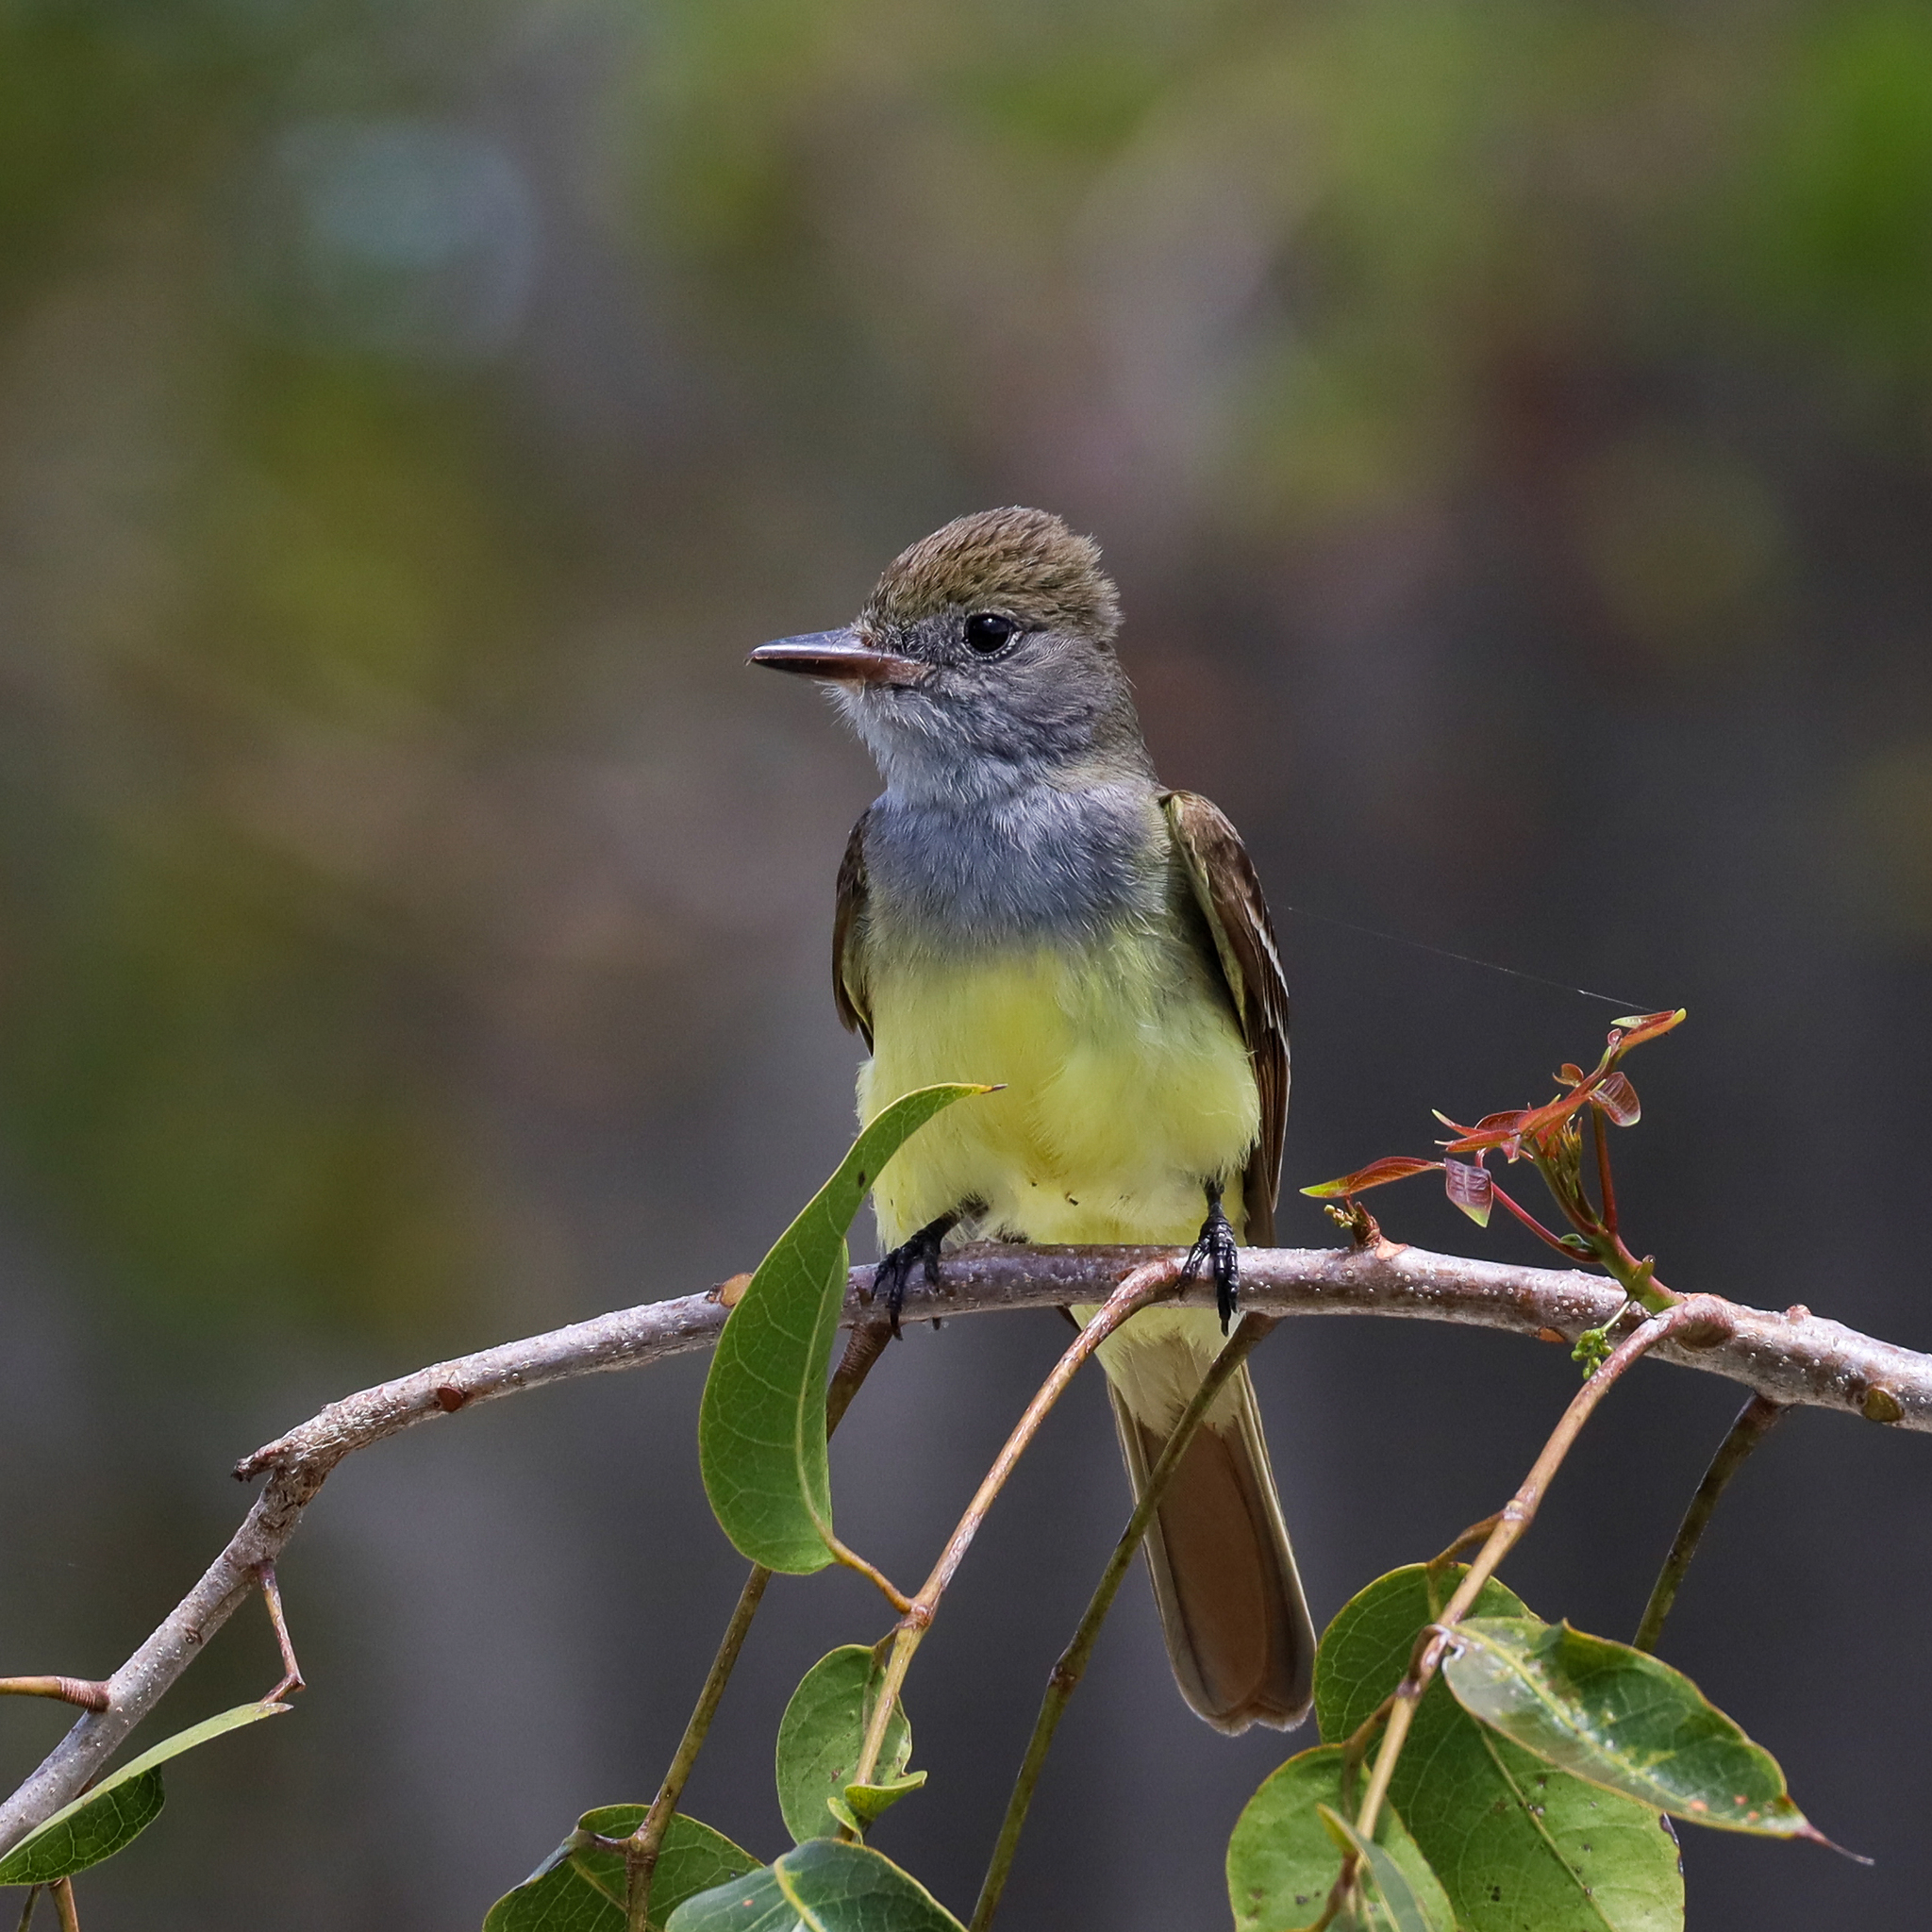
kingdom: Animalia
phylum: Chordata
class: Aves
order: Passeriformes
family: Tyrannidae
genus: Myiarchus
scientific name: Myiarchus crinitus
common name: Great crested flycatcher
